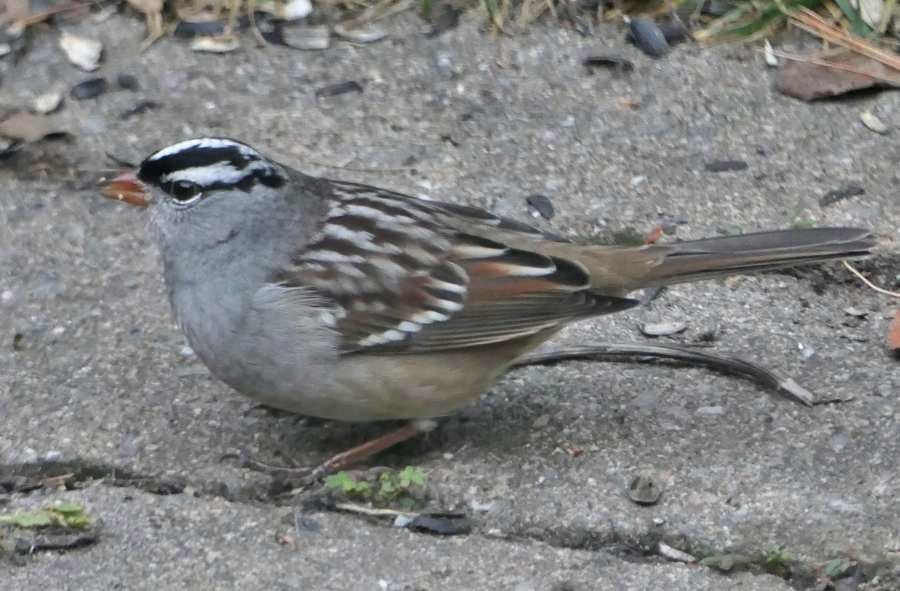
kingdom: Animalia
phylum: Chordata
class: Aves
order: Passeriformes
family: Passerellidae
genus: Zonotrichia
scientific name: Zonotrichia leucophrys
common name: White-crowned sparrow
